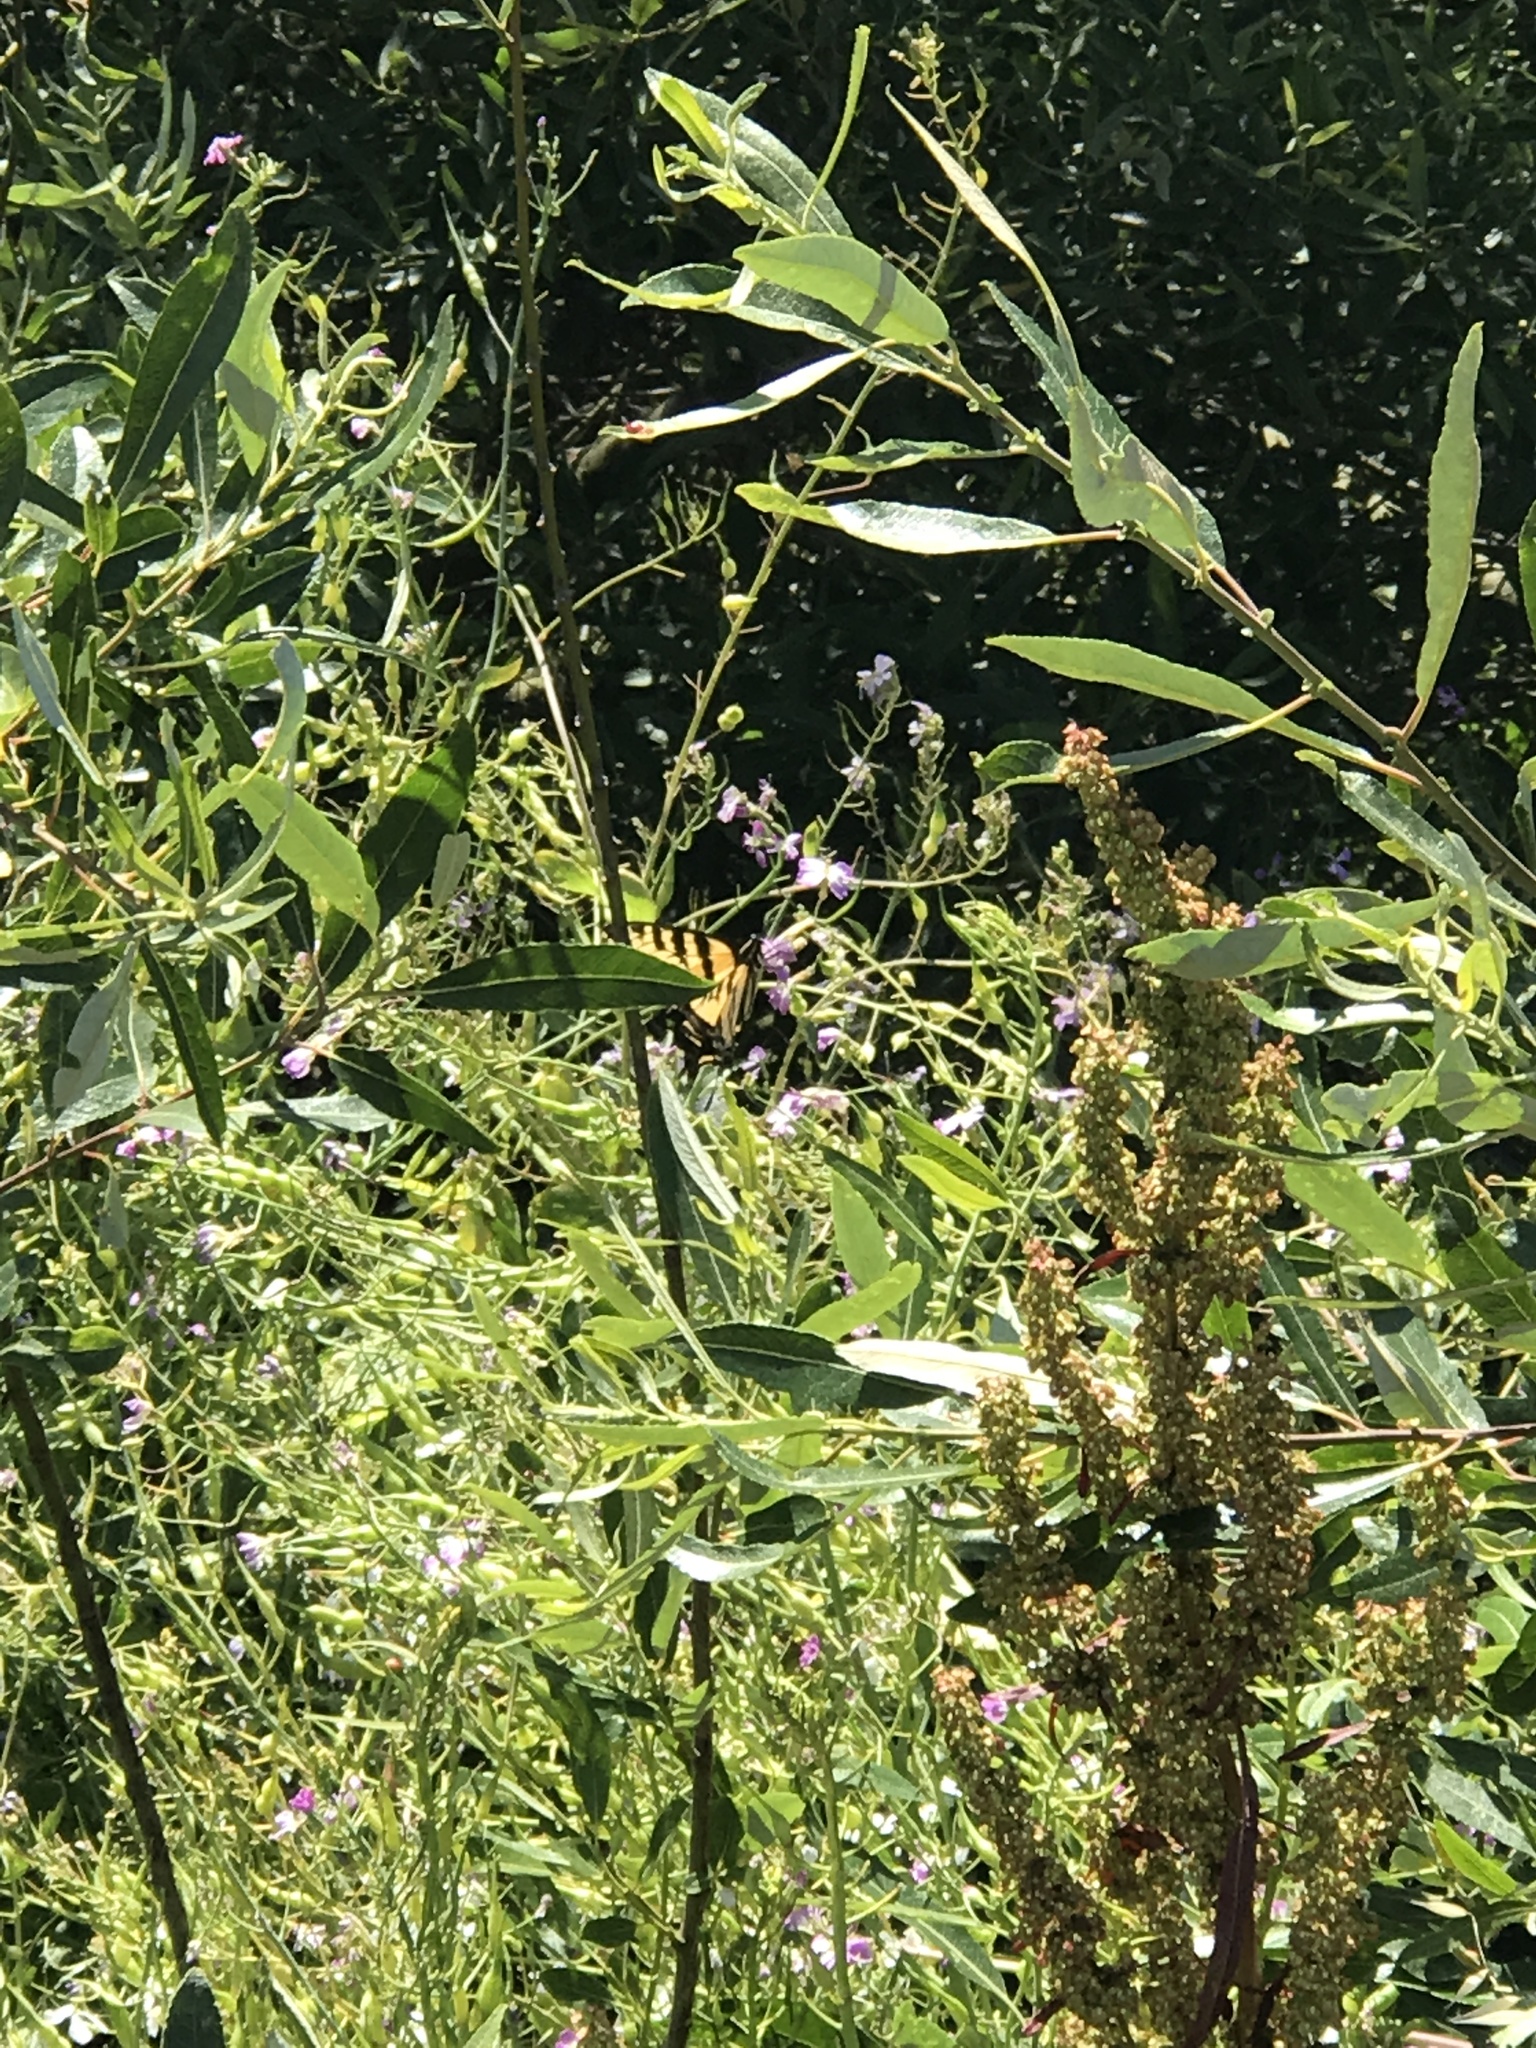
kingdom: Animalia
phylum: Arthropoda
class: Insecta
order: Lepidoptera
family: Papilionidae
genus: Papilio
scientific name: Papilio rutulus
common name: Western tiger swallowtail
